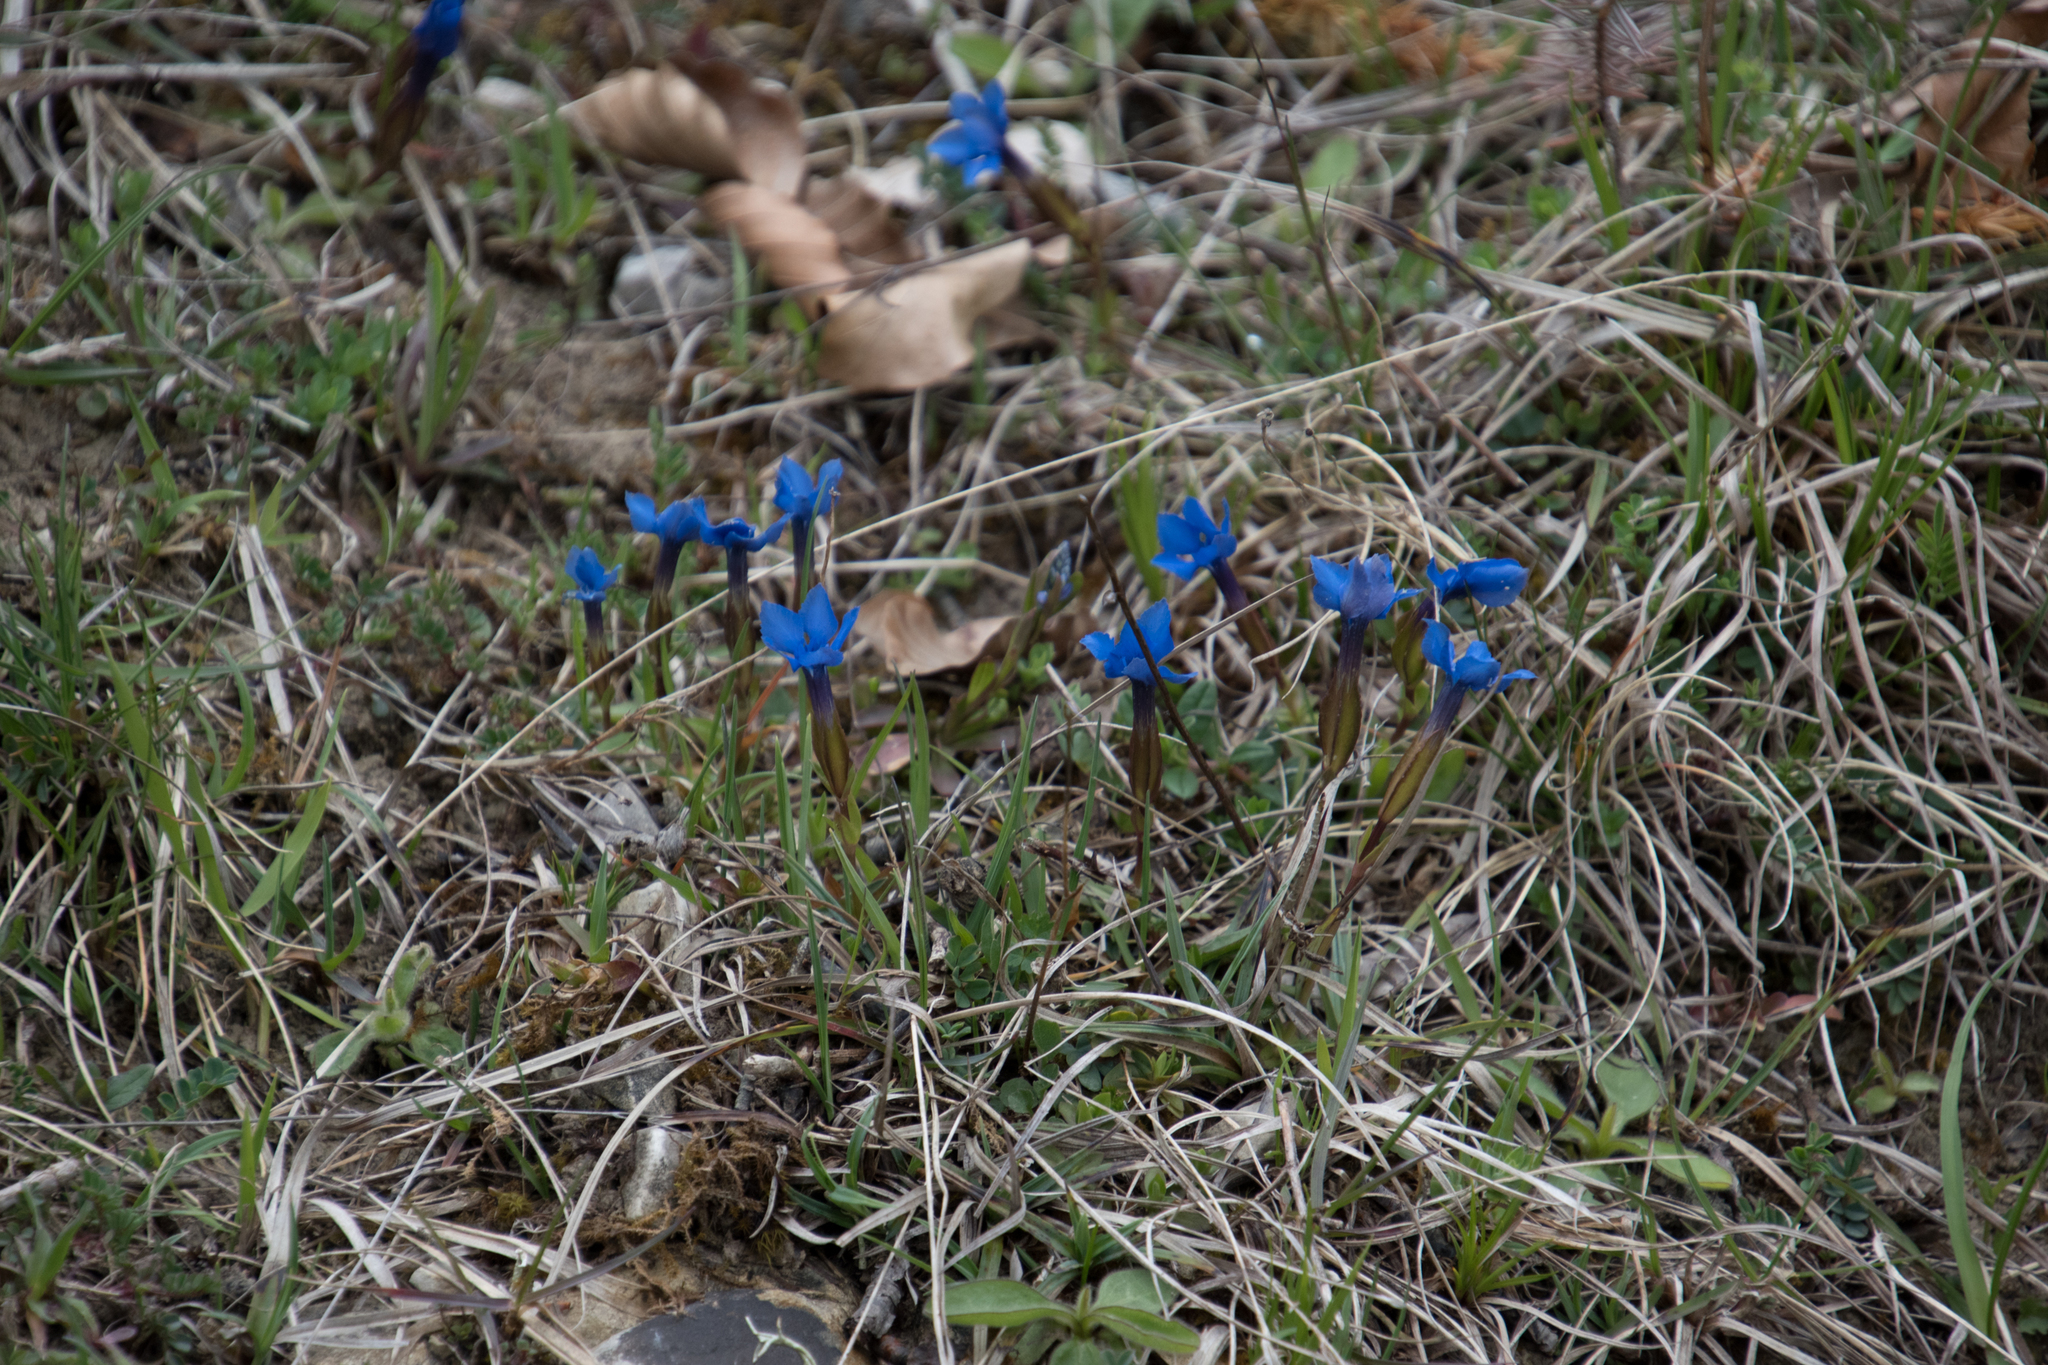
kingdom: Plantae
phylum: Tracheophyta
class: Magnoliopsida
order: Gentianales
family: Gentianaceae
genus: Gentiana
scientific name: Gentiana verna
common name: Spring gentian
